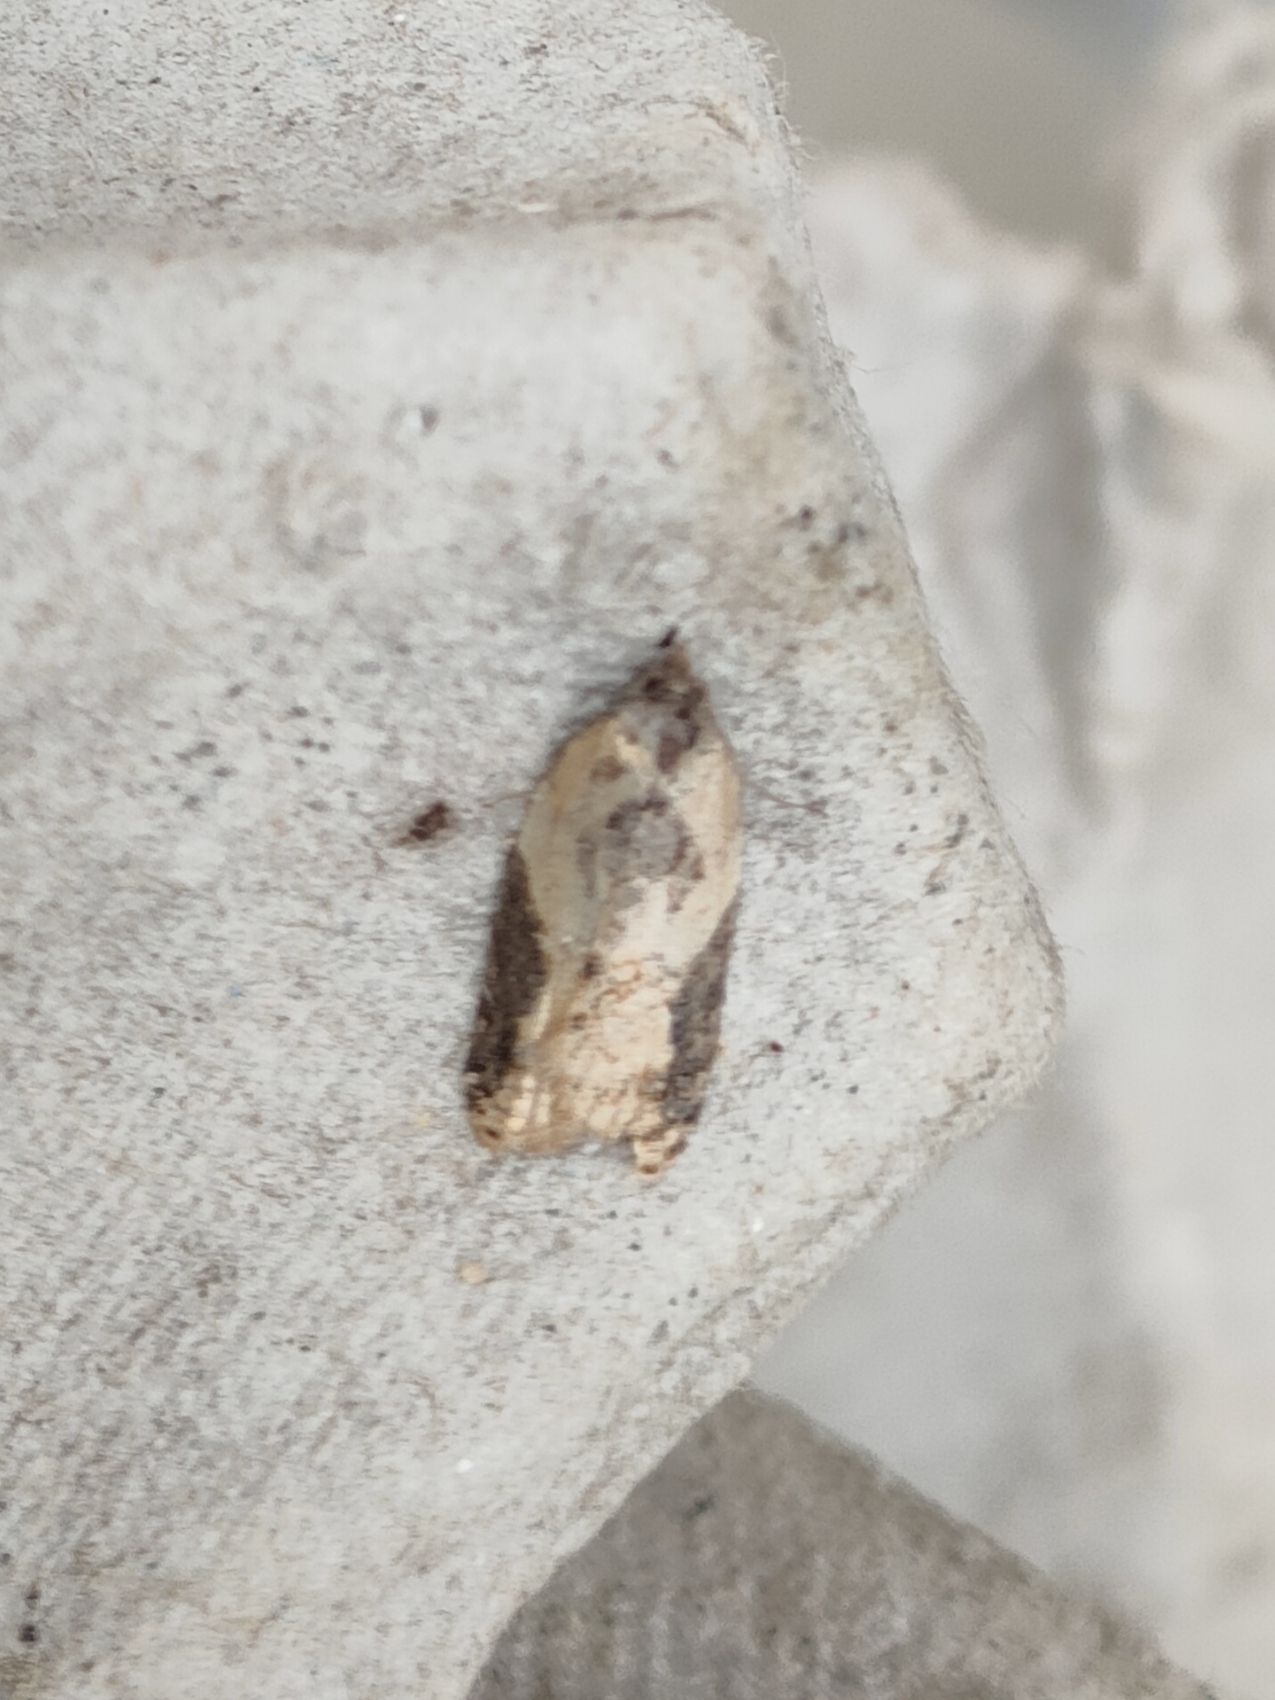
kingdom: Animalia
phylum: Arthropoda
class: Insecta
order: Lepidoptera
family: Tortricidae
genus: Acleris
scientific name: Acleris laterana
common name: Dark-triangle button
